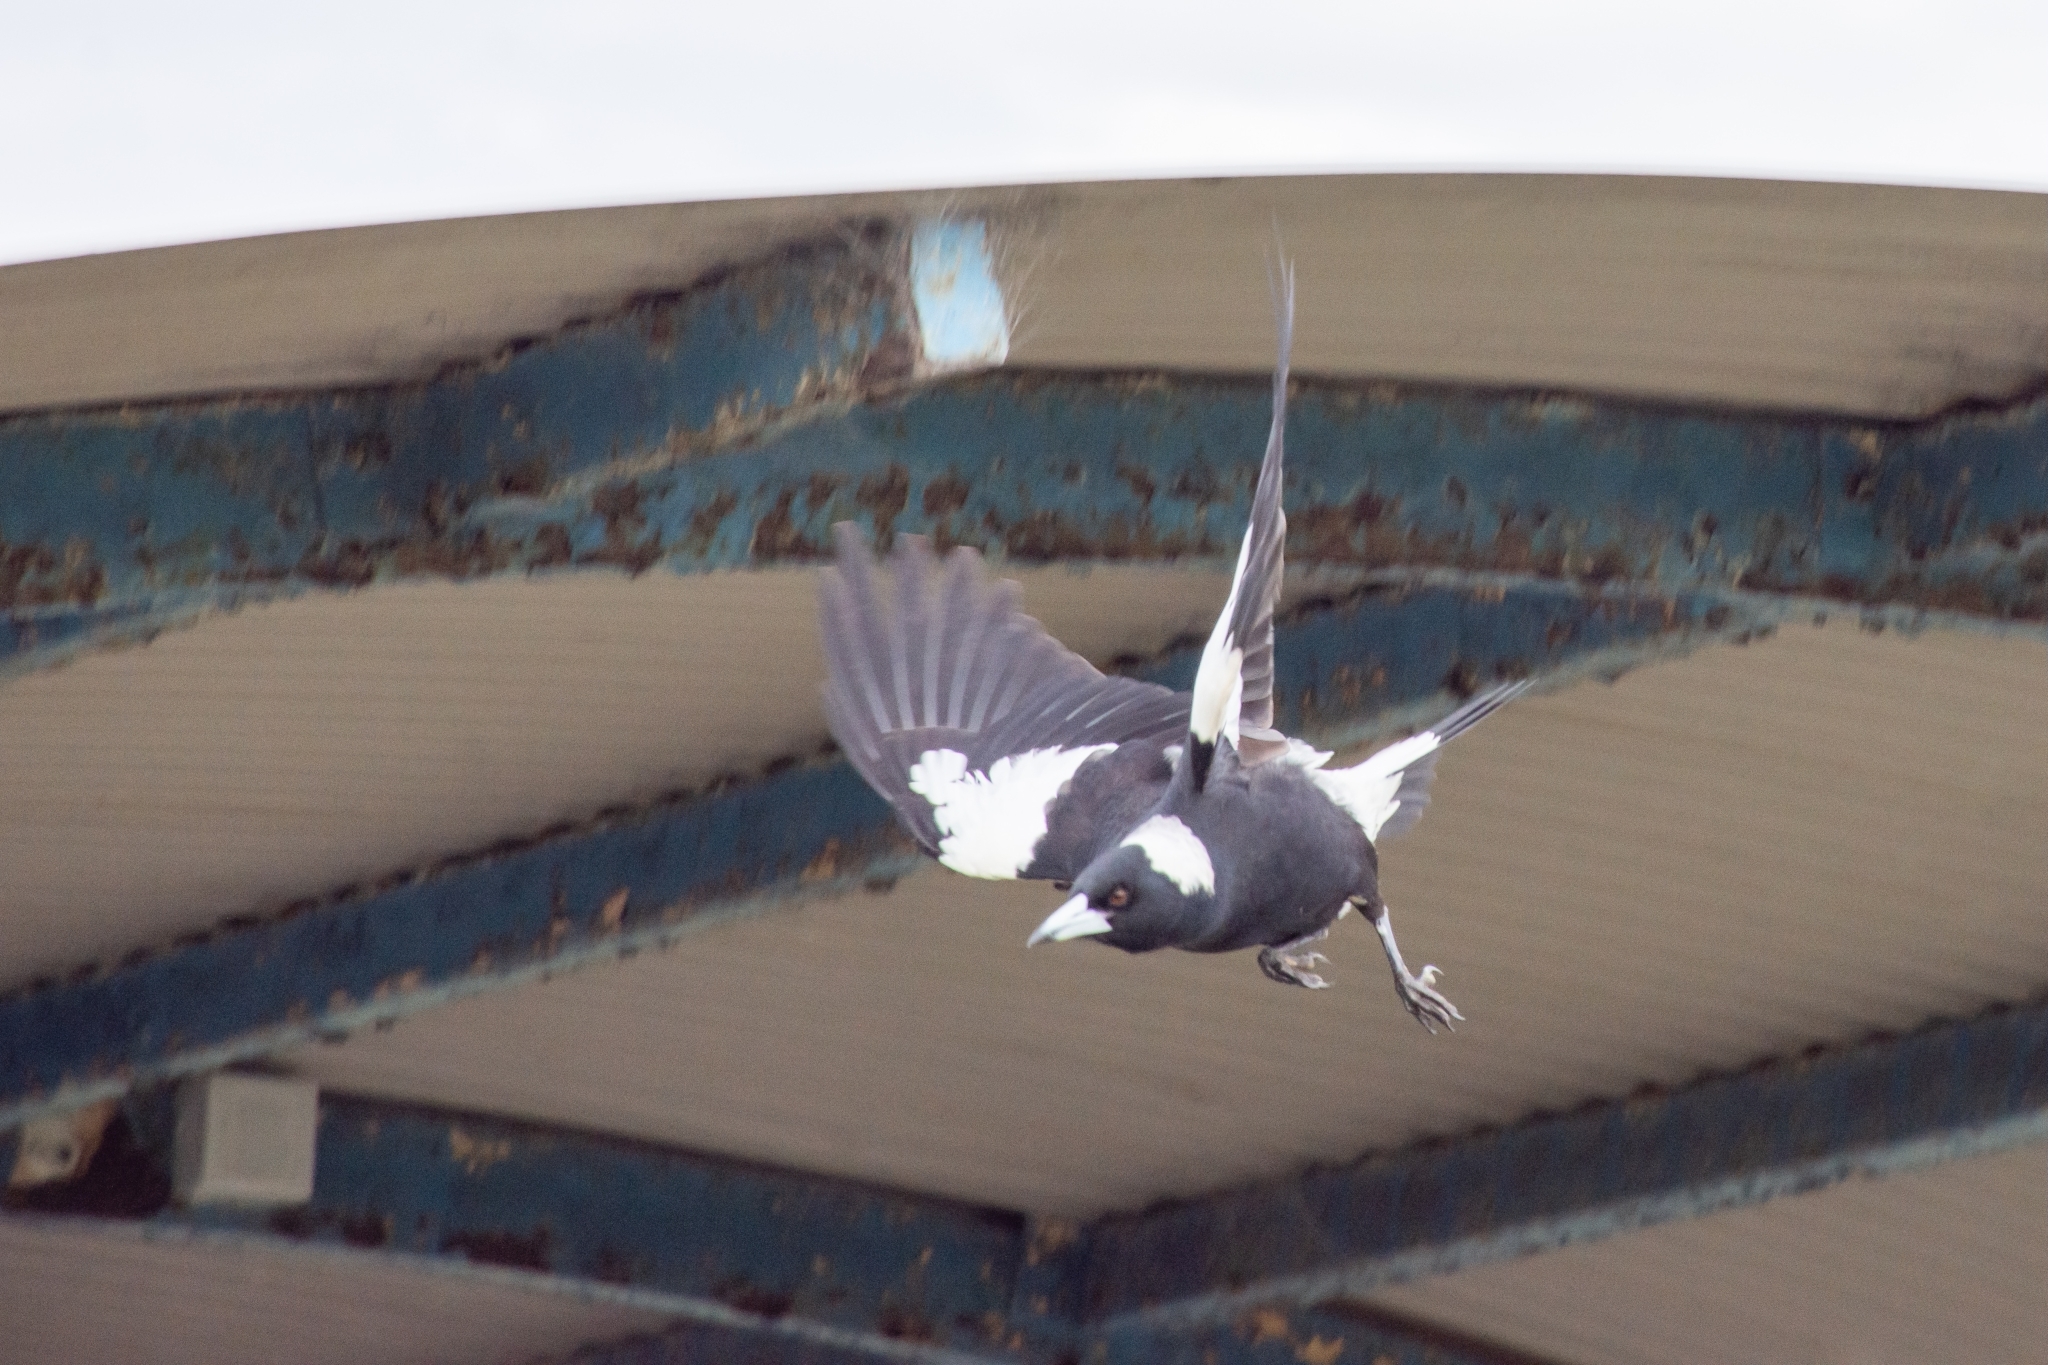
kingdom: Animalia
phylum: Chordata
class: Aves
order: Passeriformes
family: Cracticidae
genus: Gymnorhina
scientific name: Gymnorhina tibicen
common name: Australian magpie
